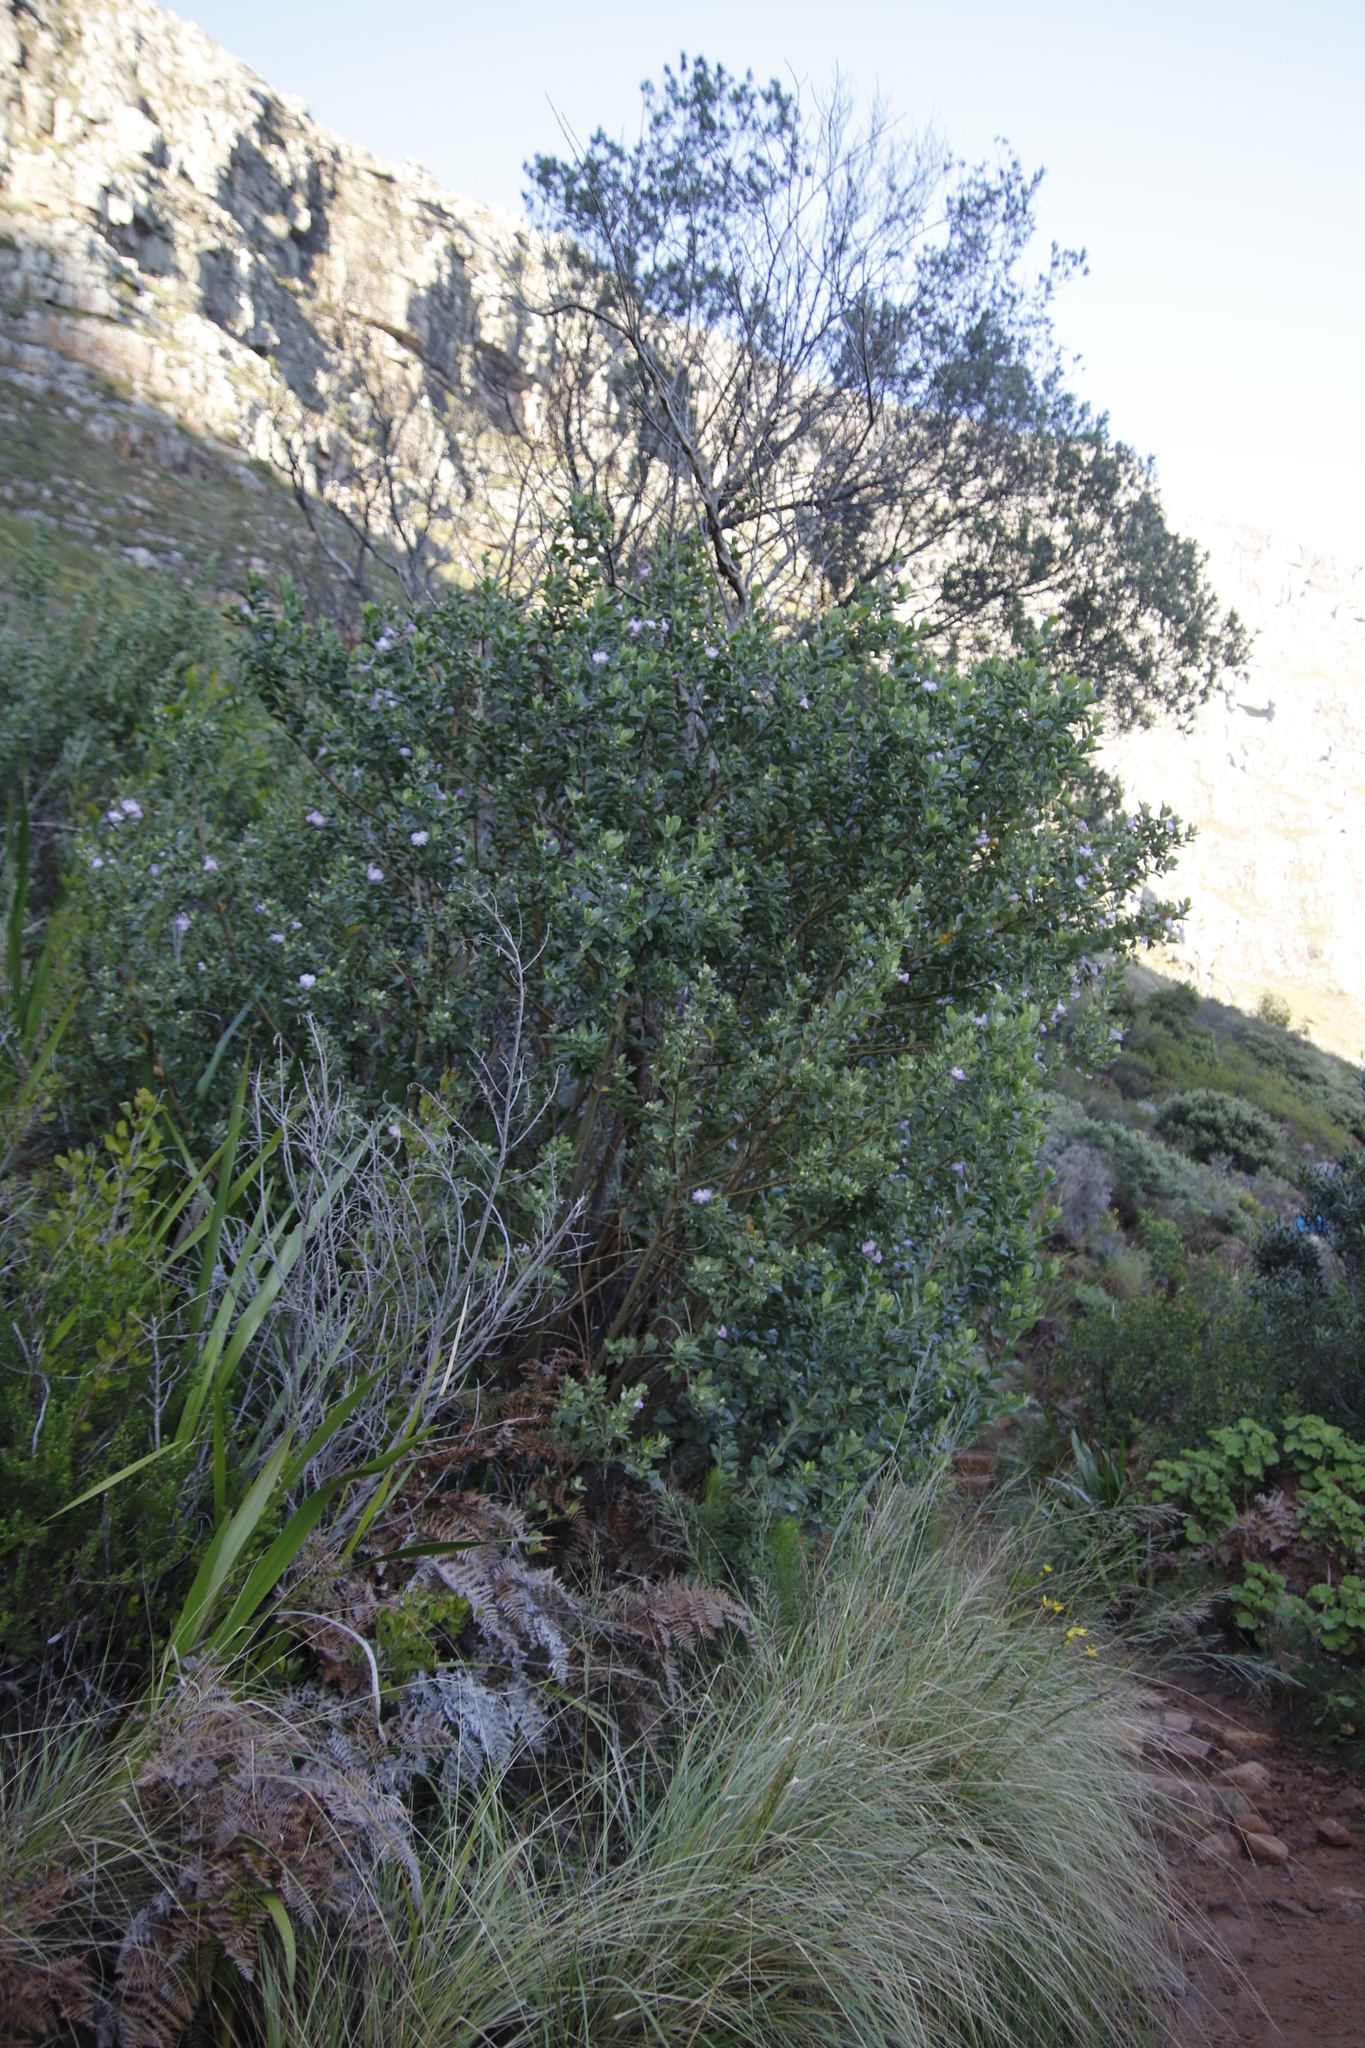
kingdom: Plantae
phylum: Tracheophyta
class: Magnoliopsida
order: Fabales
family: Fabaceae
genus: Podalyria
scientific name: Podalyria calyptrata
